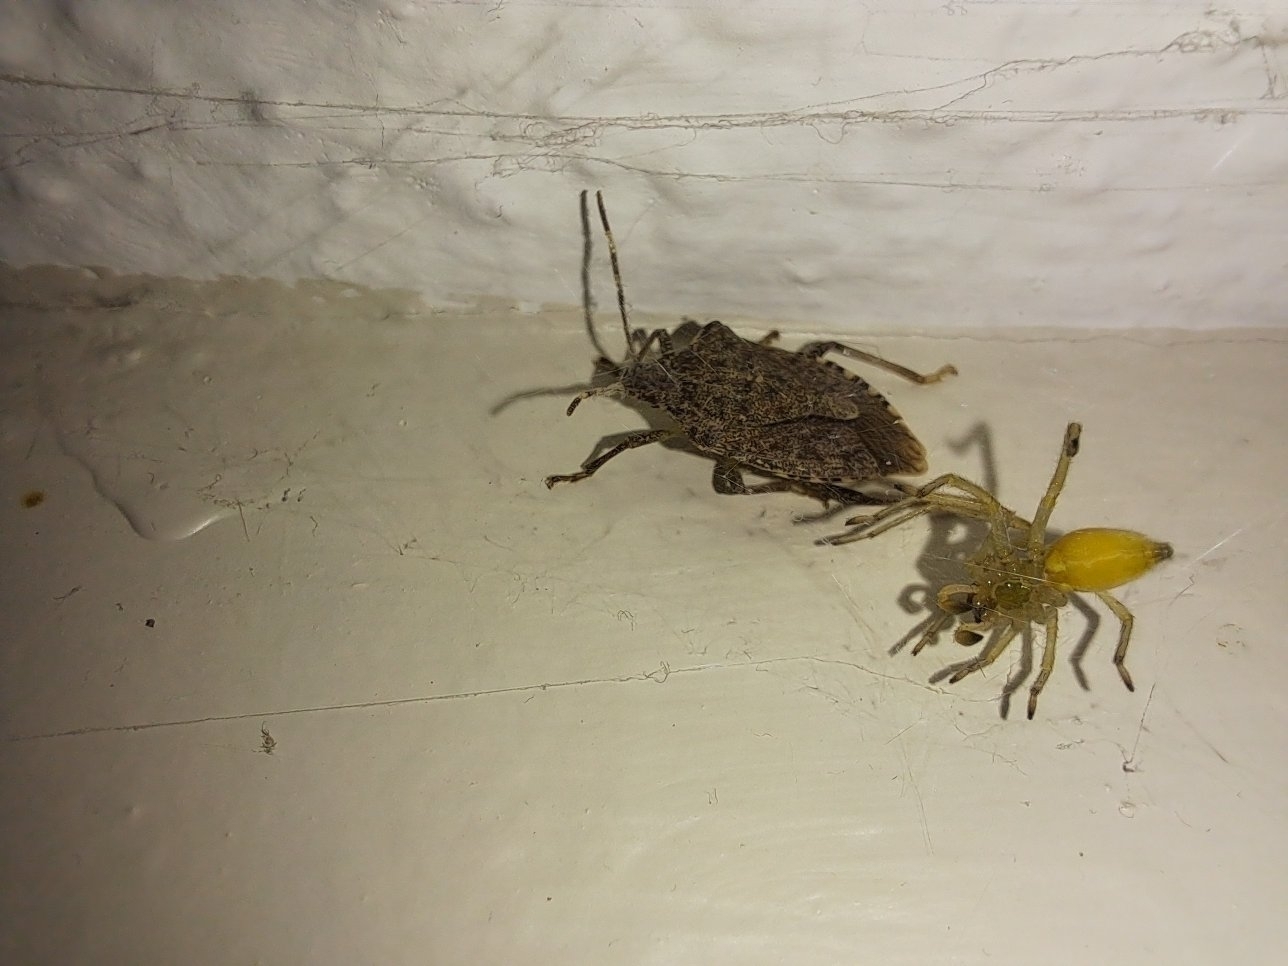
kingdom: Animalia
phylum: Arthropoda
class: Insecta
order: Hemiptera
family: Pentatomidae
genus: Halyomorpha
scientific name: Halyomorpha halys
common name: Brown marmorated stink bug
